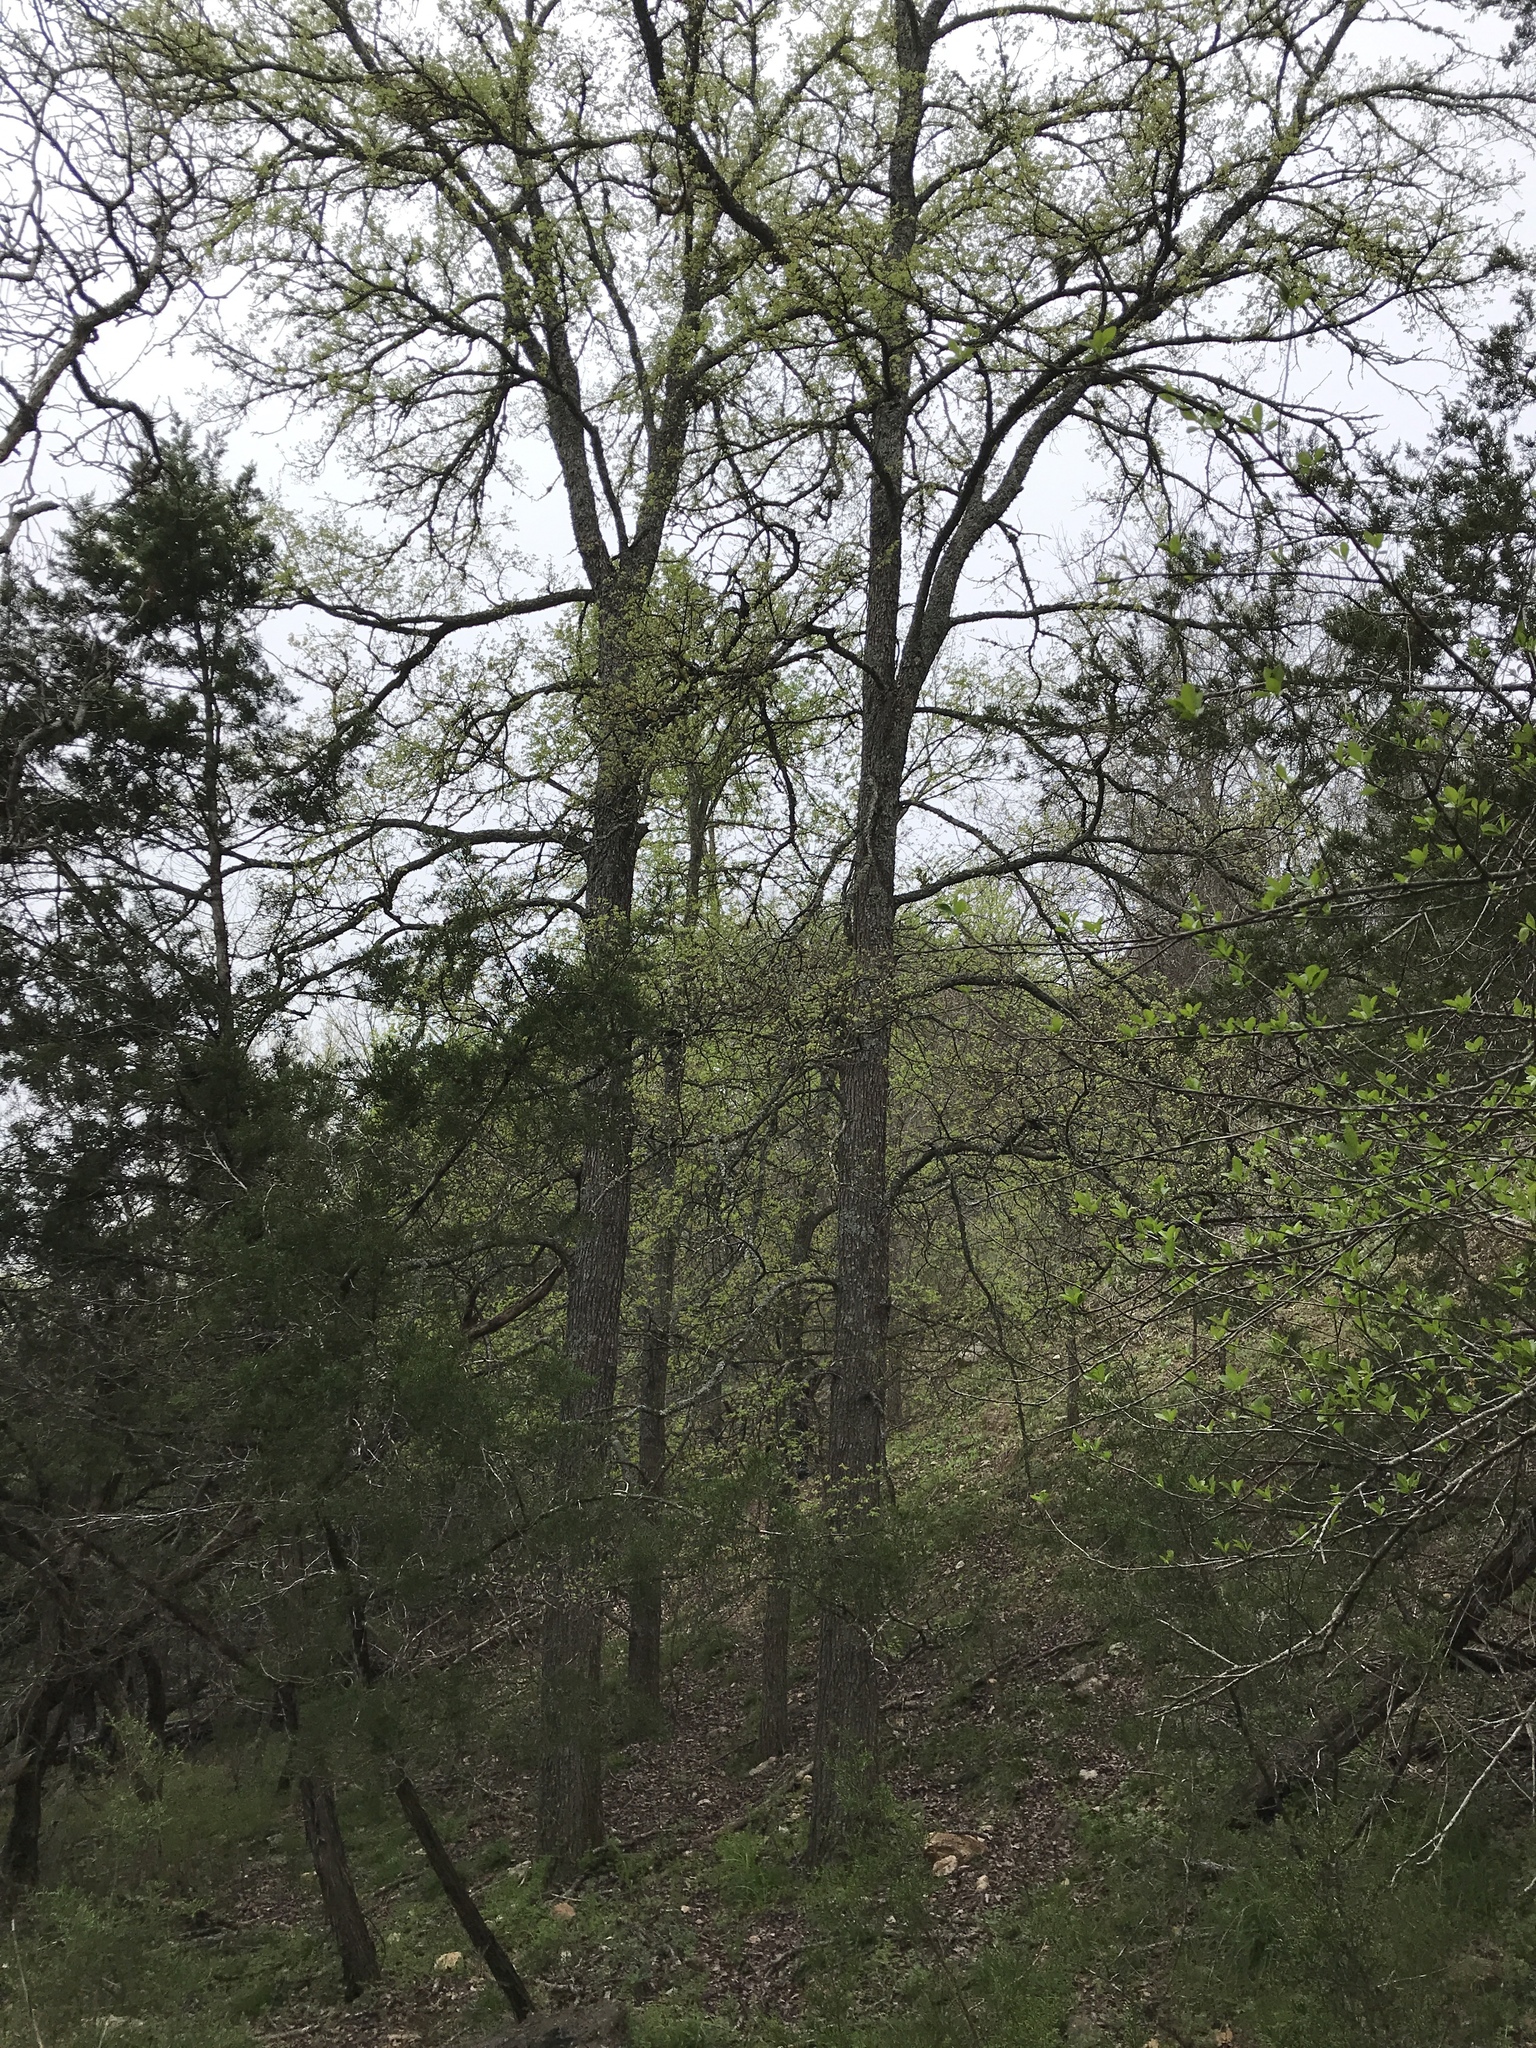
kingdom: Plantae
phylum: Tracheophyta
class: Magnoliopsida
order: Rosales
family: Ulmaceae
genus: Ulmus
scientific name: Ulmus crassifolia
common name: Basket elm
